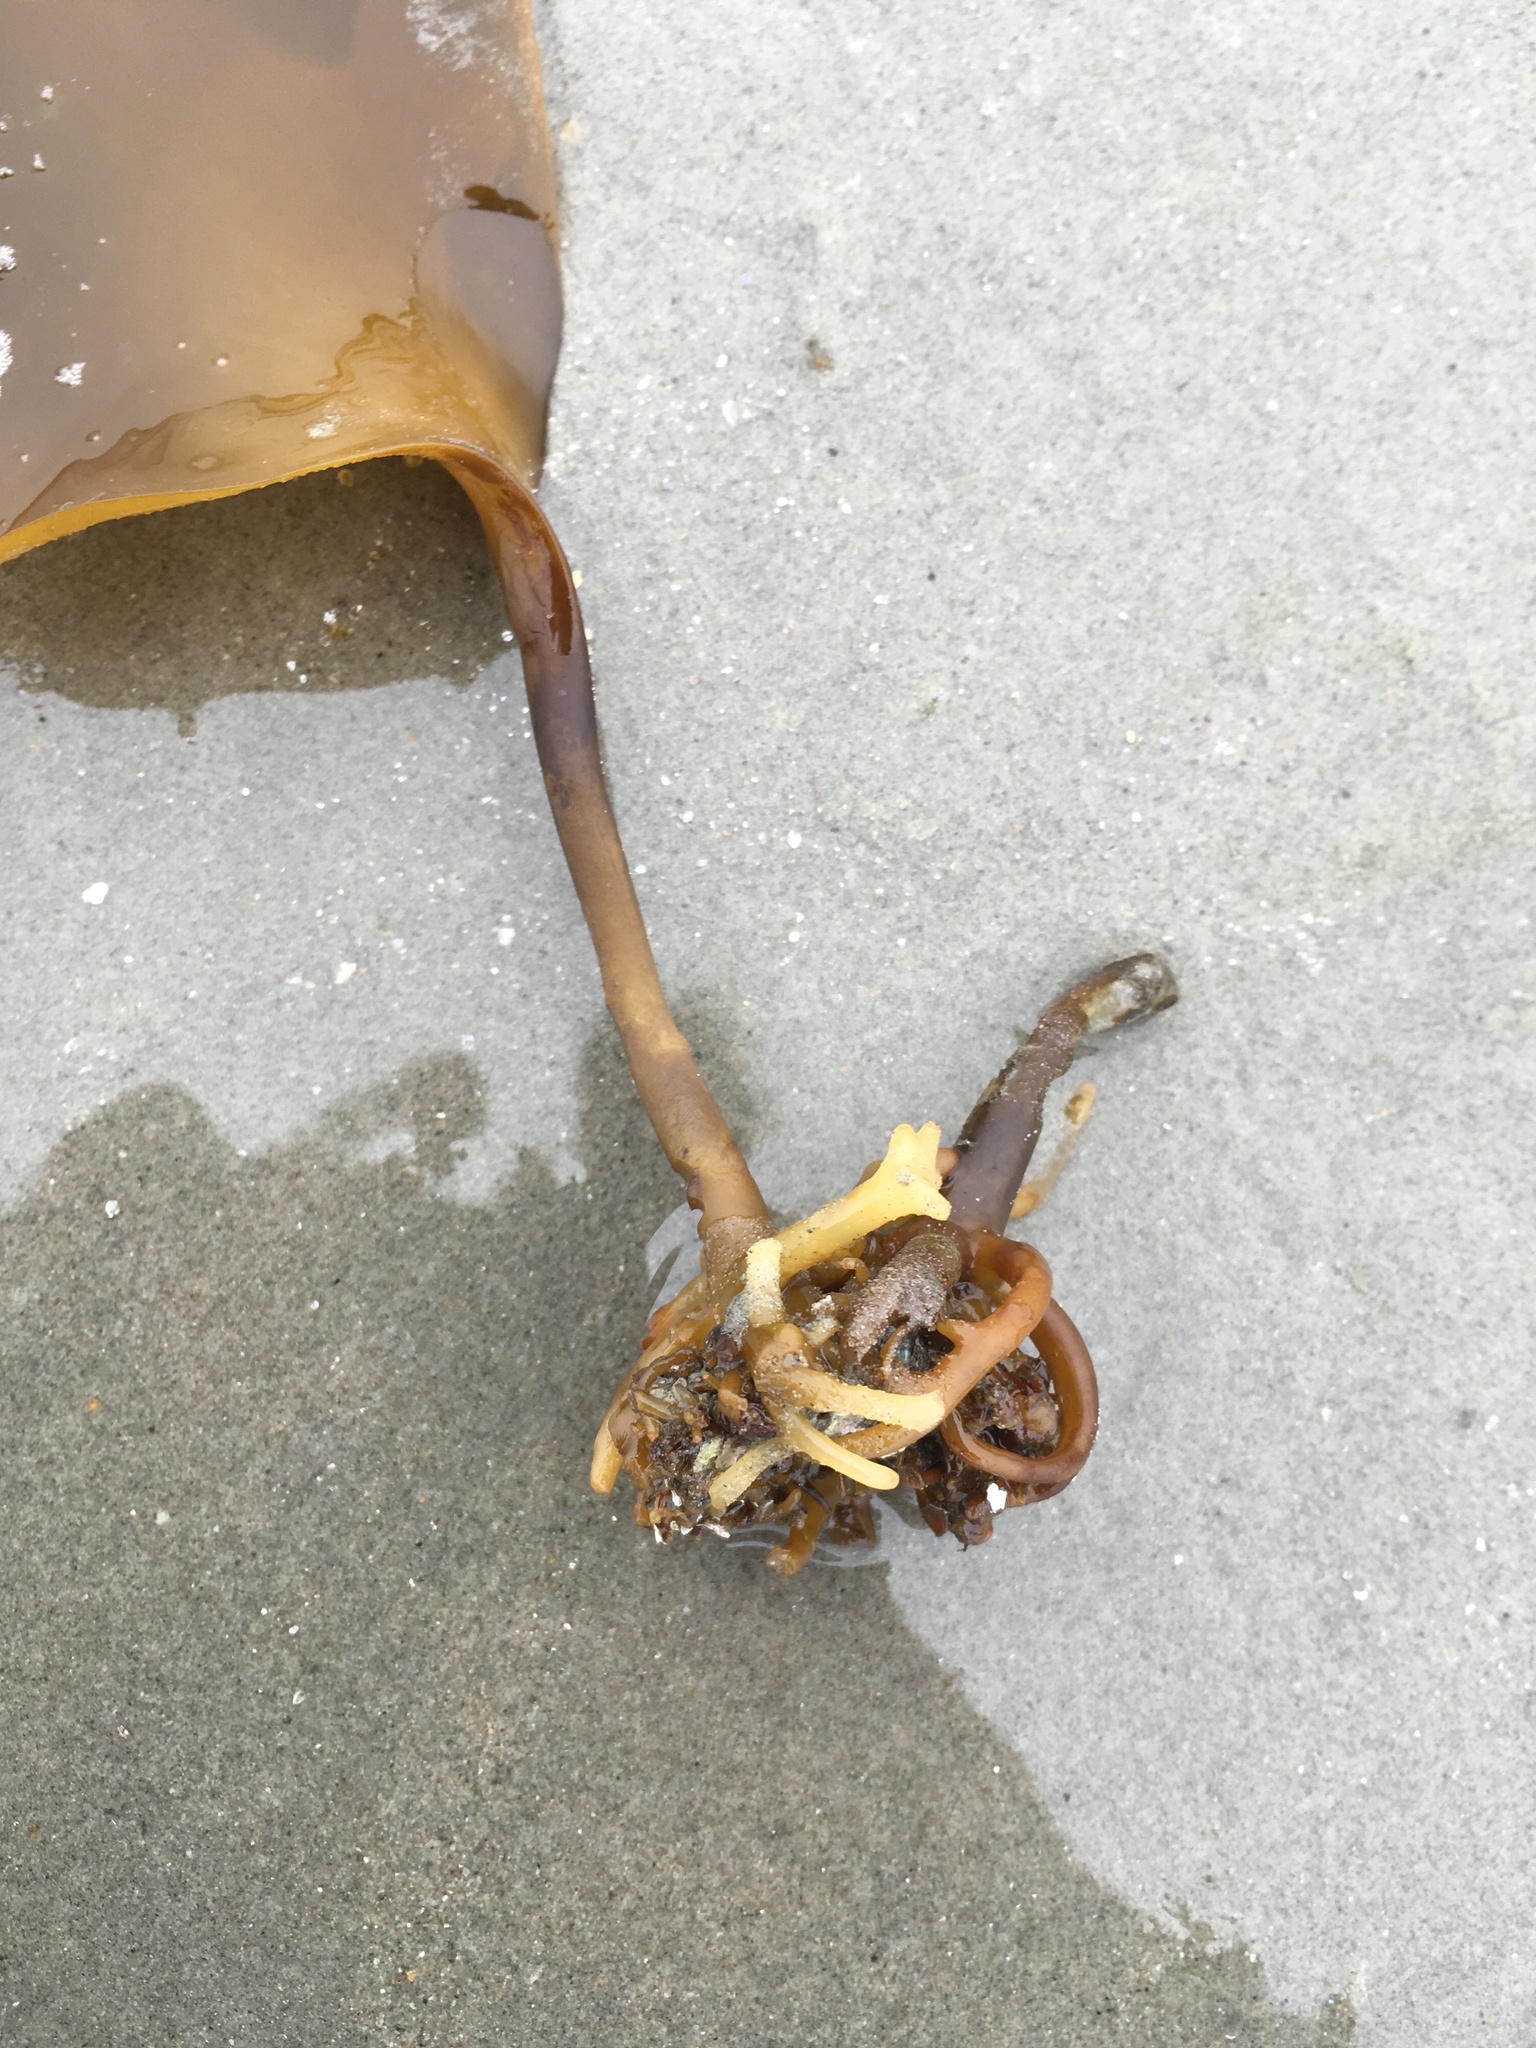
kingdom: Chromista
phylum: Ochrophyta
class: Phaeophyceae
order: Laminariales
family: Laminariaceae
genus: Saccharina
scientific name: Saccharina latissima
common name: Poor man's weather glass
